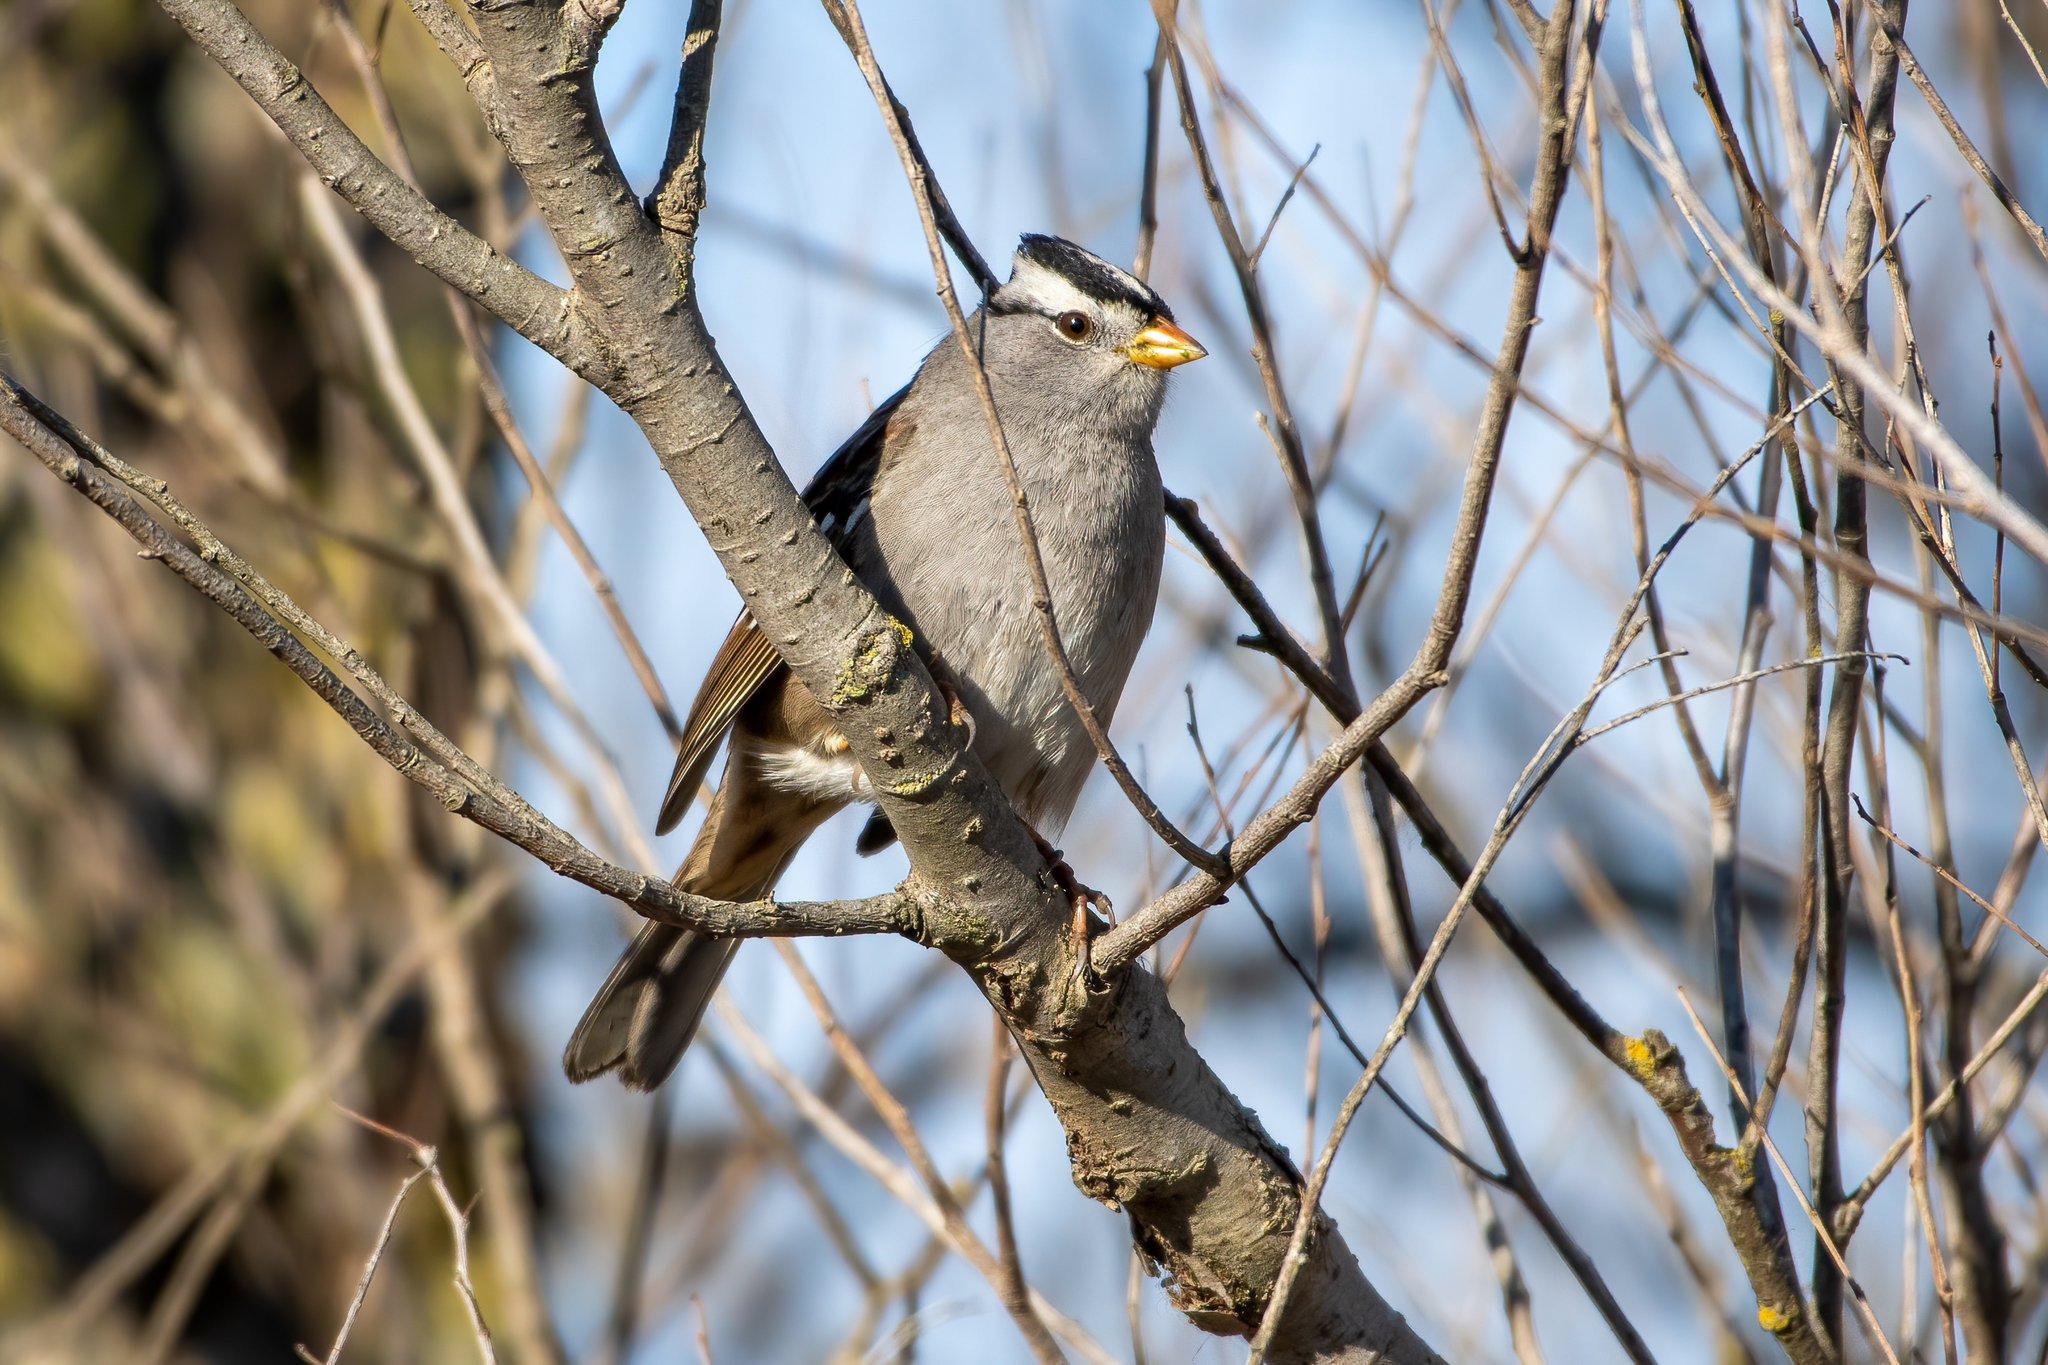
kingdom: Animalia
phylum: Chordata
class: Aves
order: Passeriformes
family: Passerellidae
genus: Zonotrichia
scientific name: Zonotrichia leucophrys
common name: White-crowned sparrow
